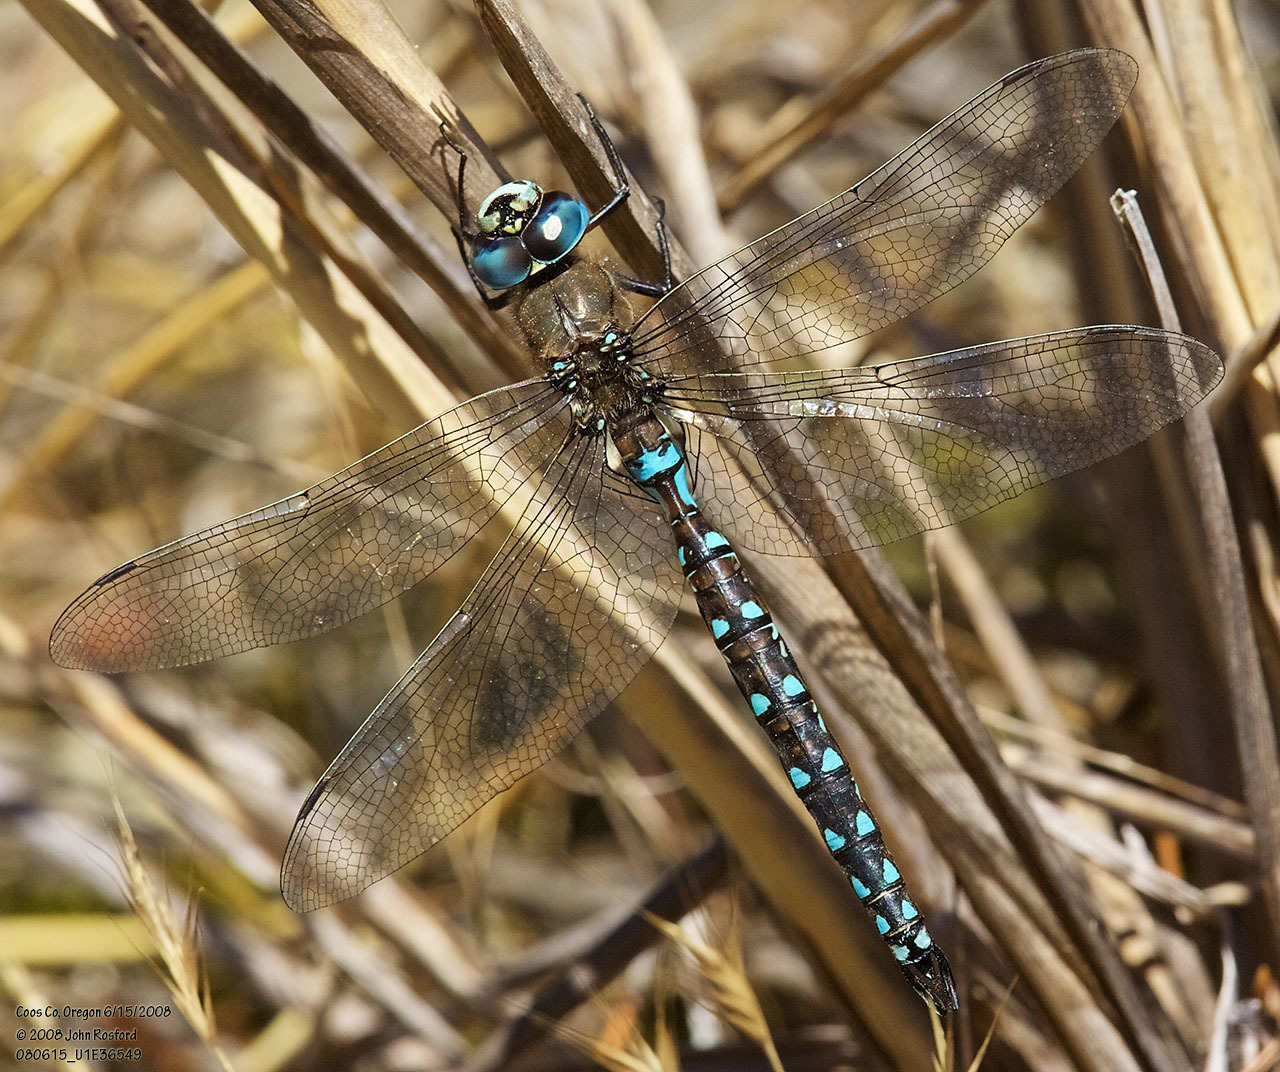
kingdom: Animalia
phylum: Arthropoda
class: Insecta
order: Odonata
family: Aeshnidae
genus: Rhionaeschna
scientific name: Rhionaeschna californica
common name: California darner
